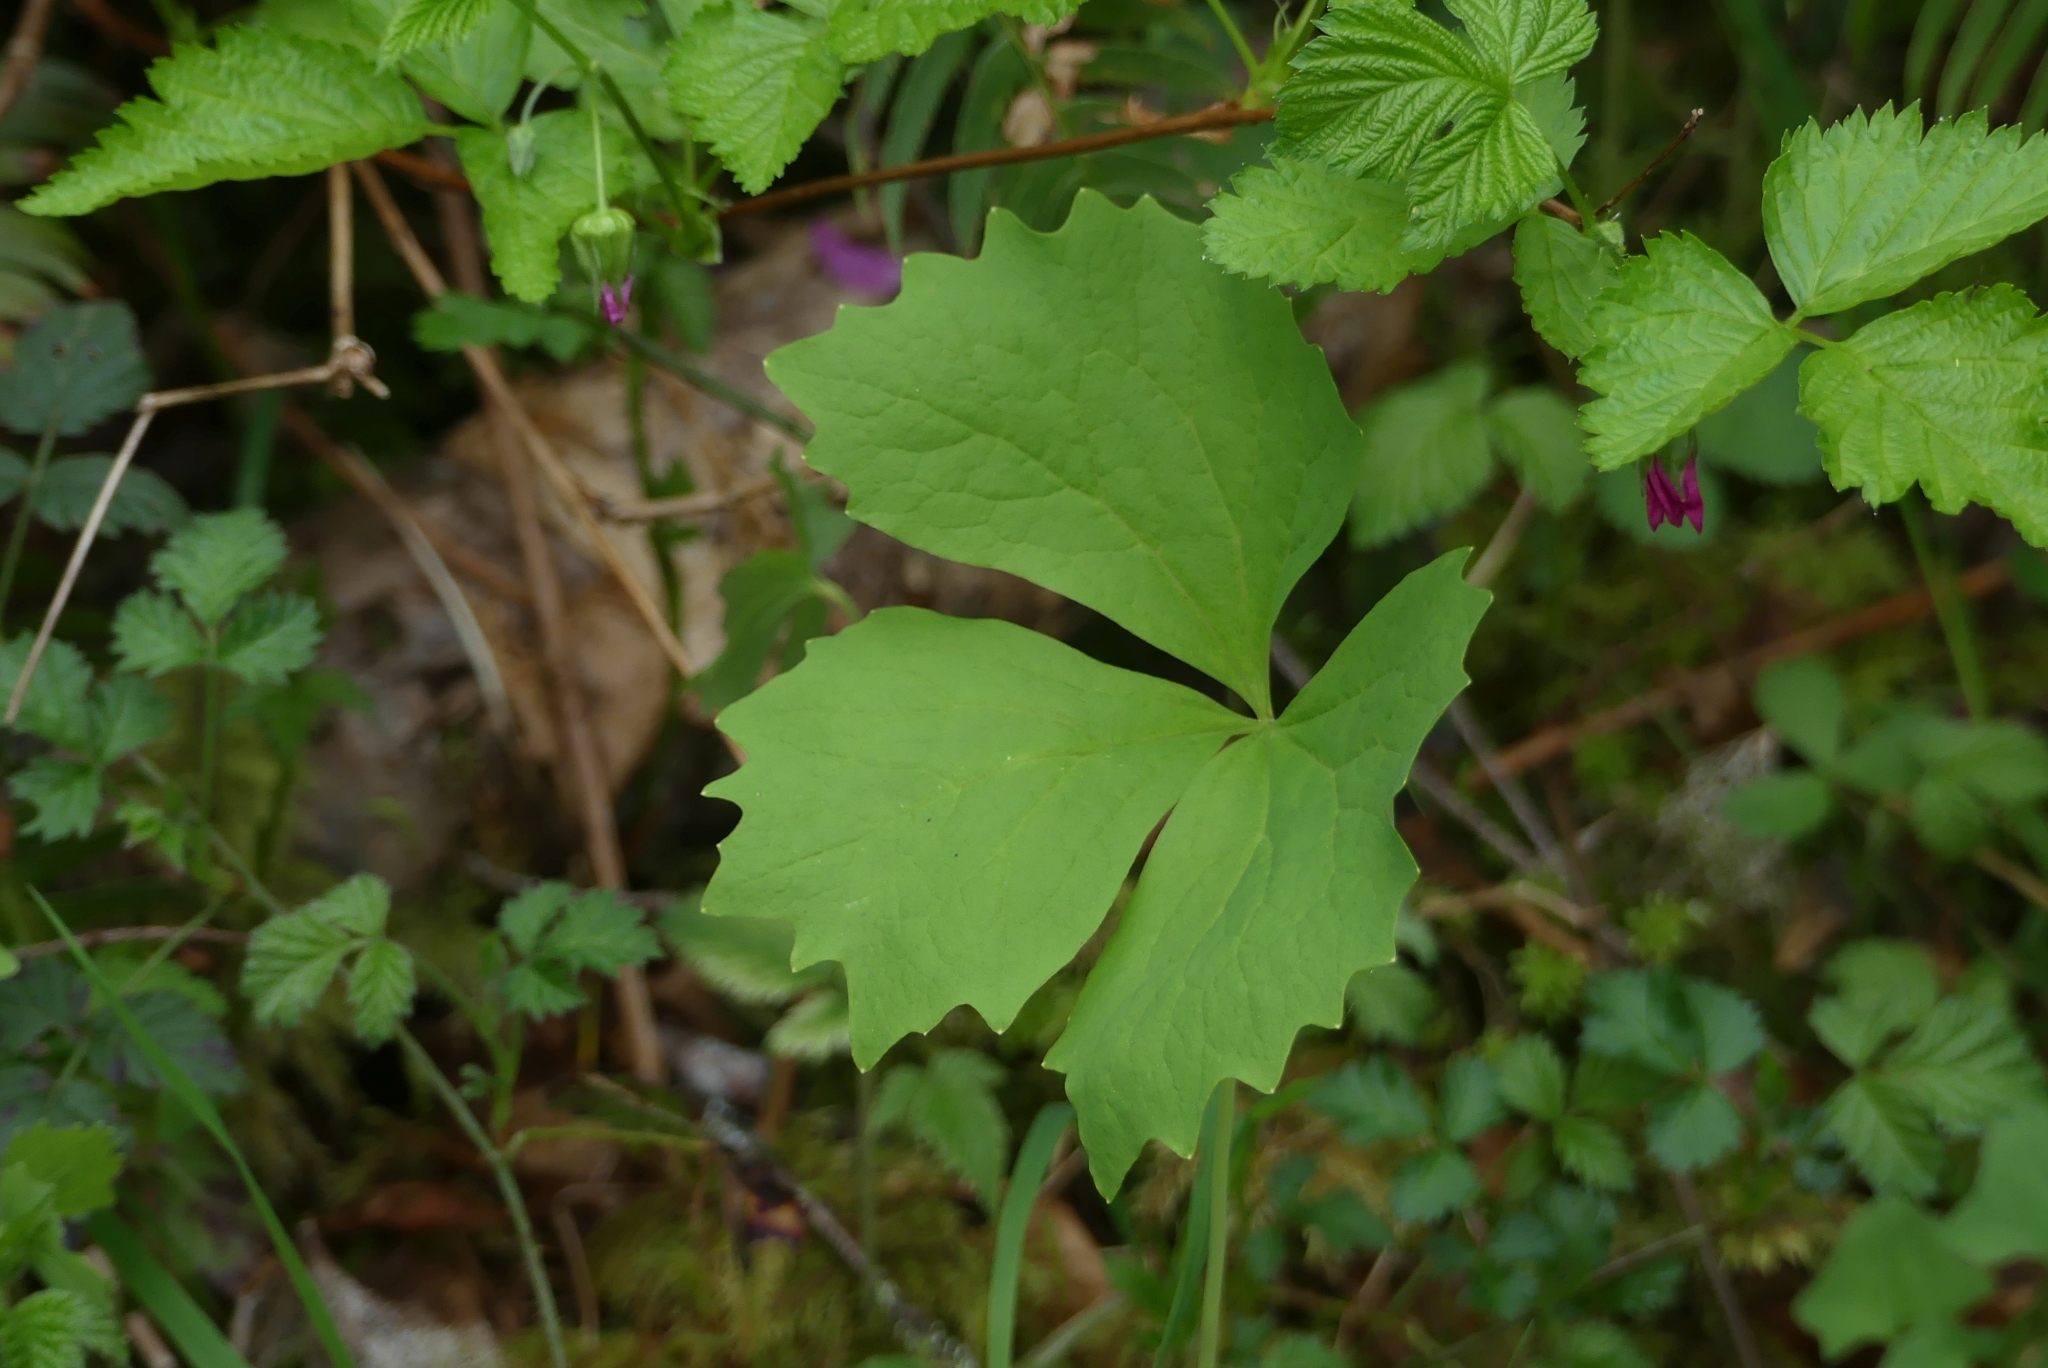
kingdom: Plantae
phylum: Tracheophyta
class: Magnoliopsida
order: Ranunculales
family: Berberidaceae
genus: Achlys
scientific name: Achlys triphylla
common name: Vanilla-leaf
